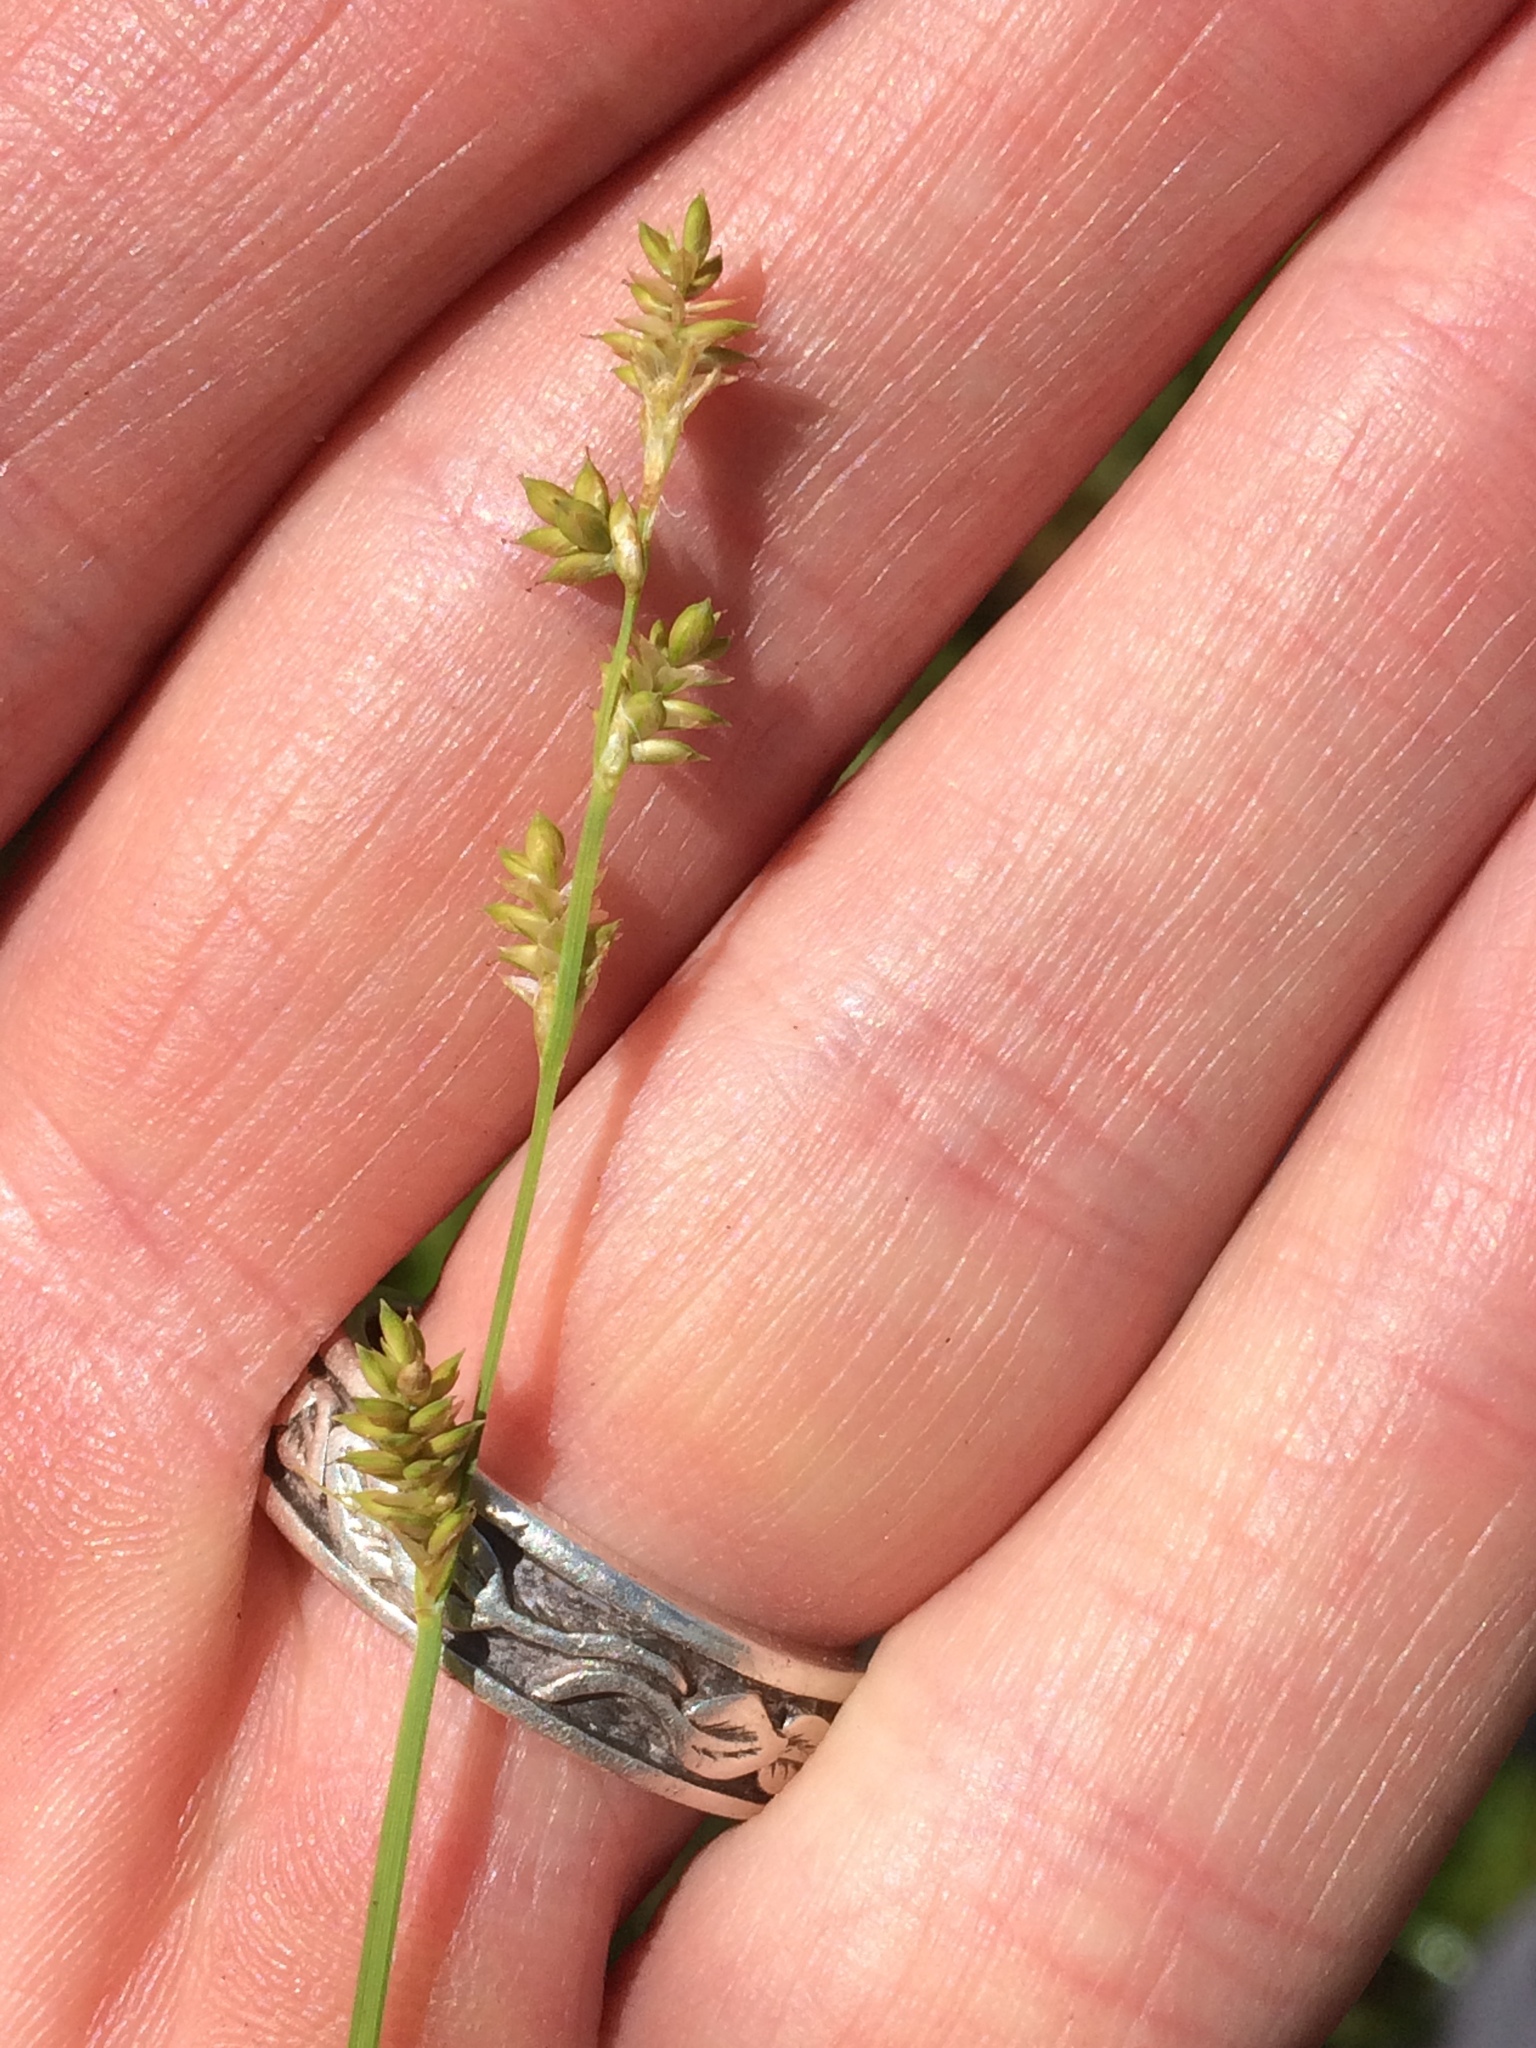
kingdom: Plantae
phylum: Tracheophyta
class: Liliopsida
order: Poales
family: Cyperaceae
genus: Carex
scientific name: Carex canescens
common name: White sedge
